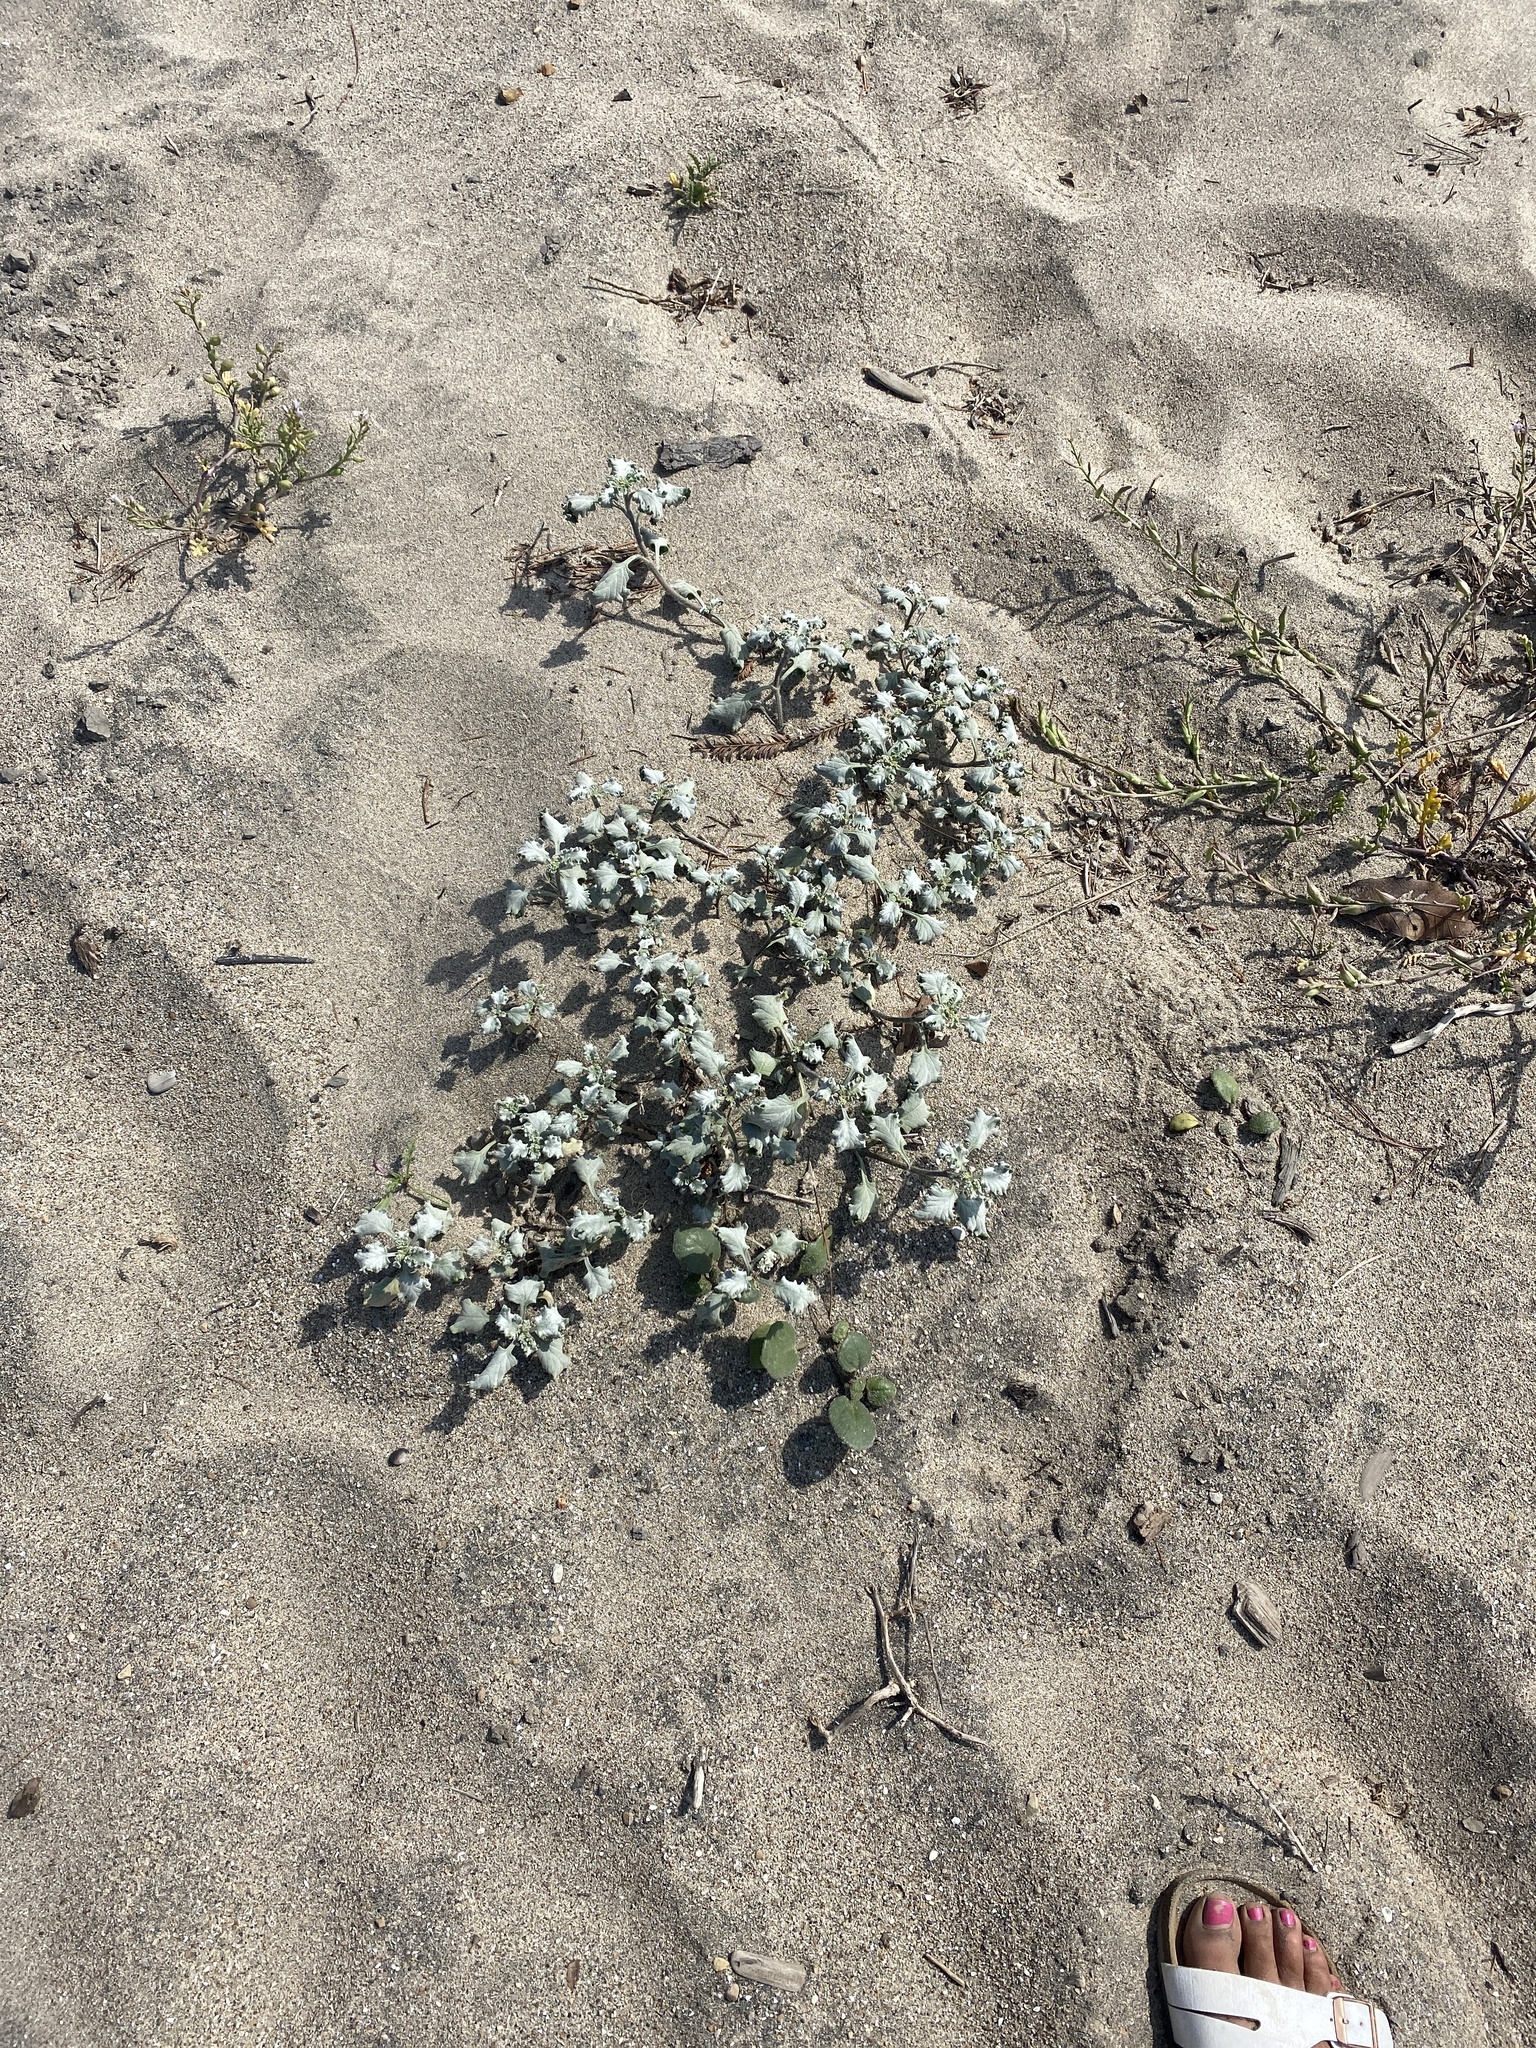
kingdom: Plantae
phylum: Tracheophyta
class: Magnoliopsida
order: Asterales
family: Asteraceae
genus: Ambrosia
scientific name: Ambrosia chamissonis
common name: Beachbur
